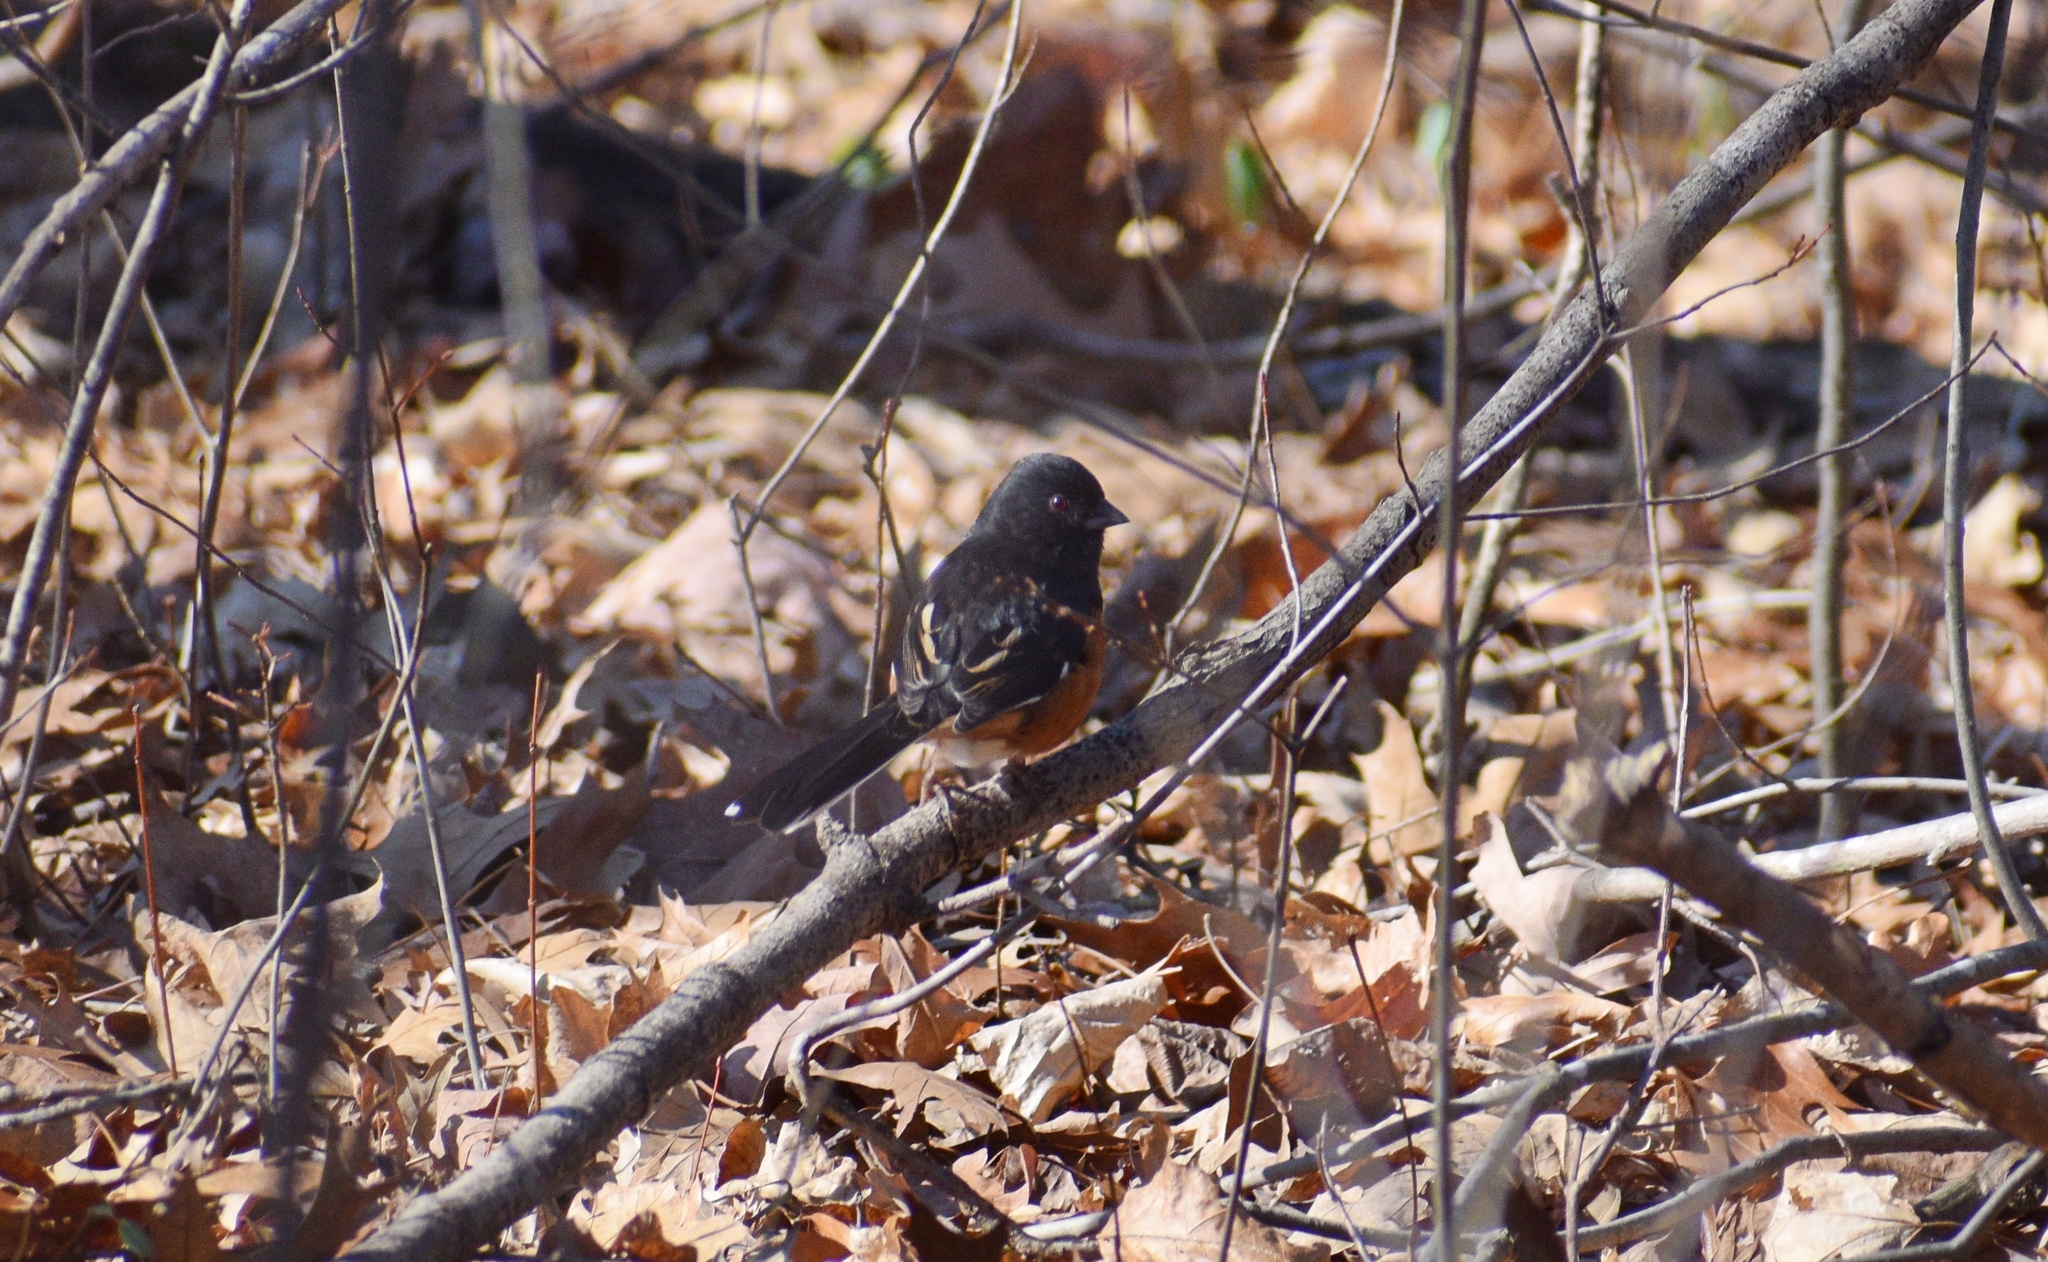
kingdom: Animalia
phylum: Chordata
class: Aves
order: Passeriformes
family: Passerellidae
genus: Pipilo
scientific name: Pipilo erythrophthalmus
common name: Eastern towhee
